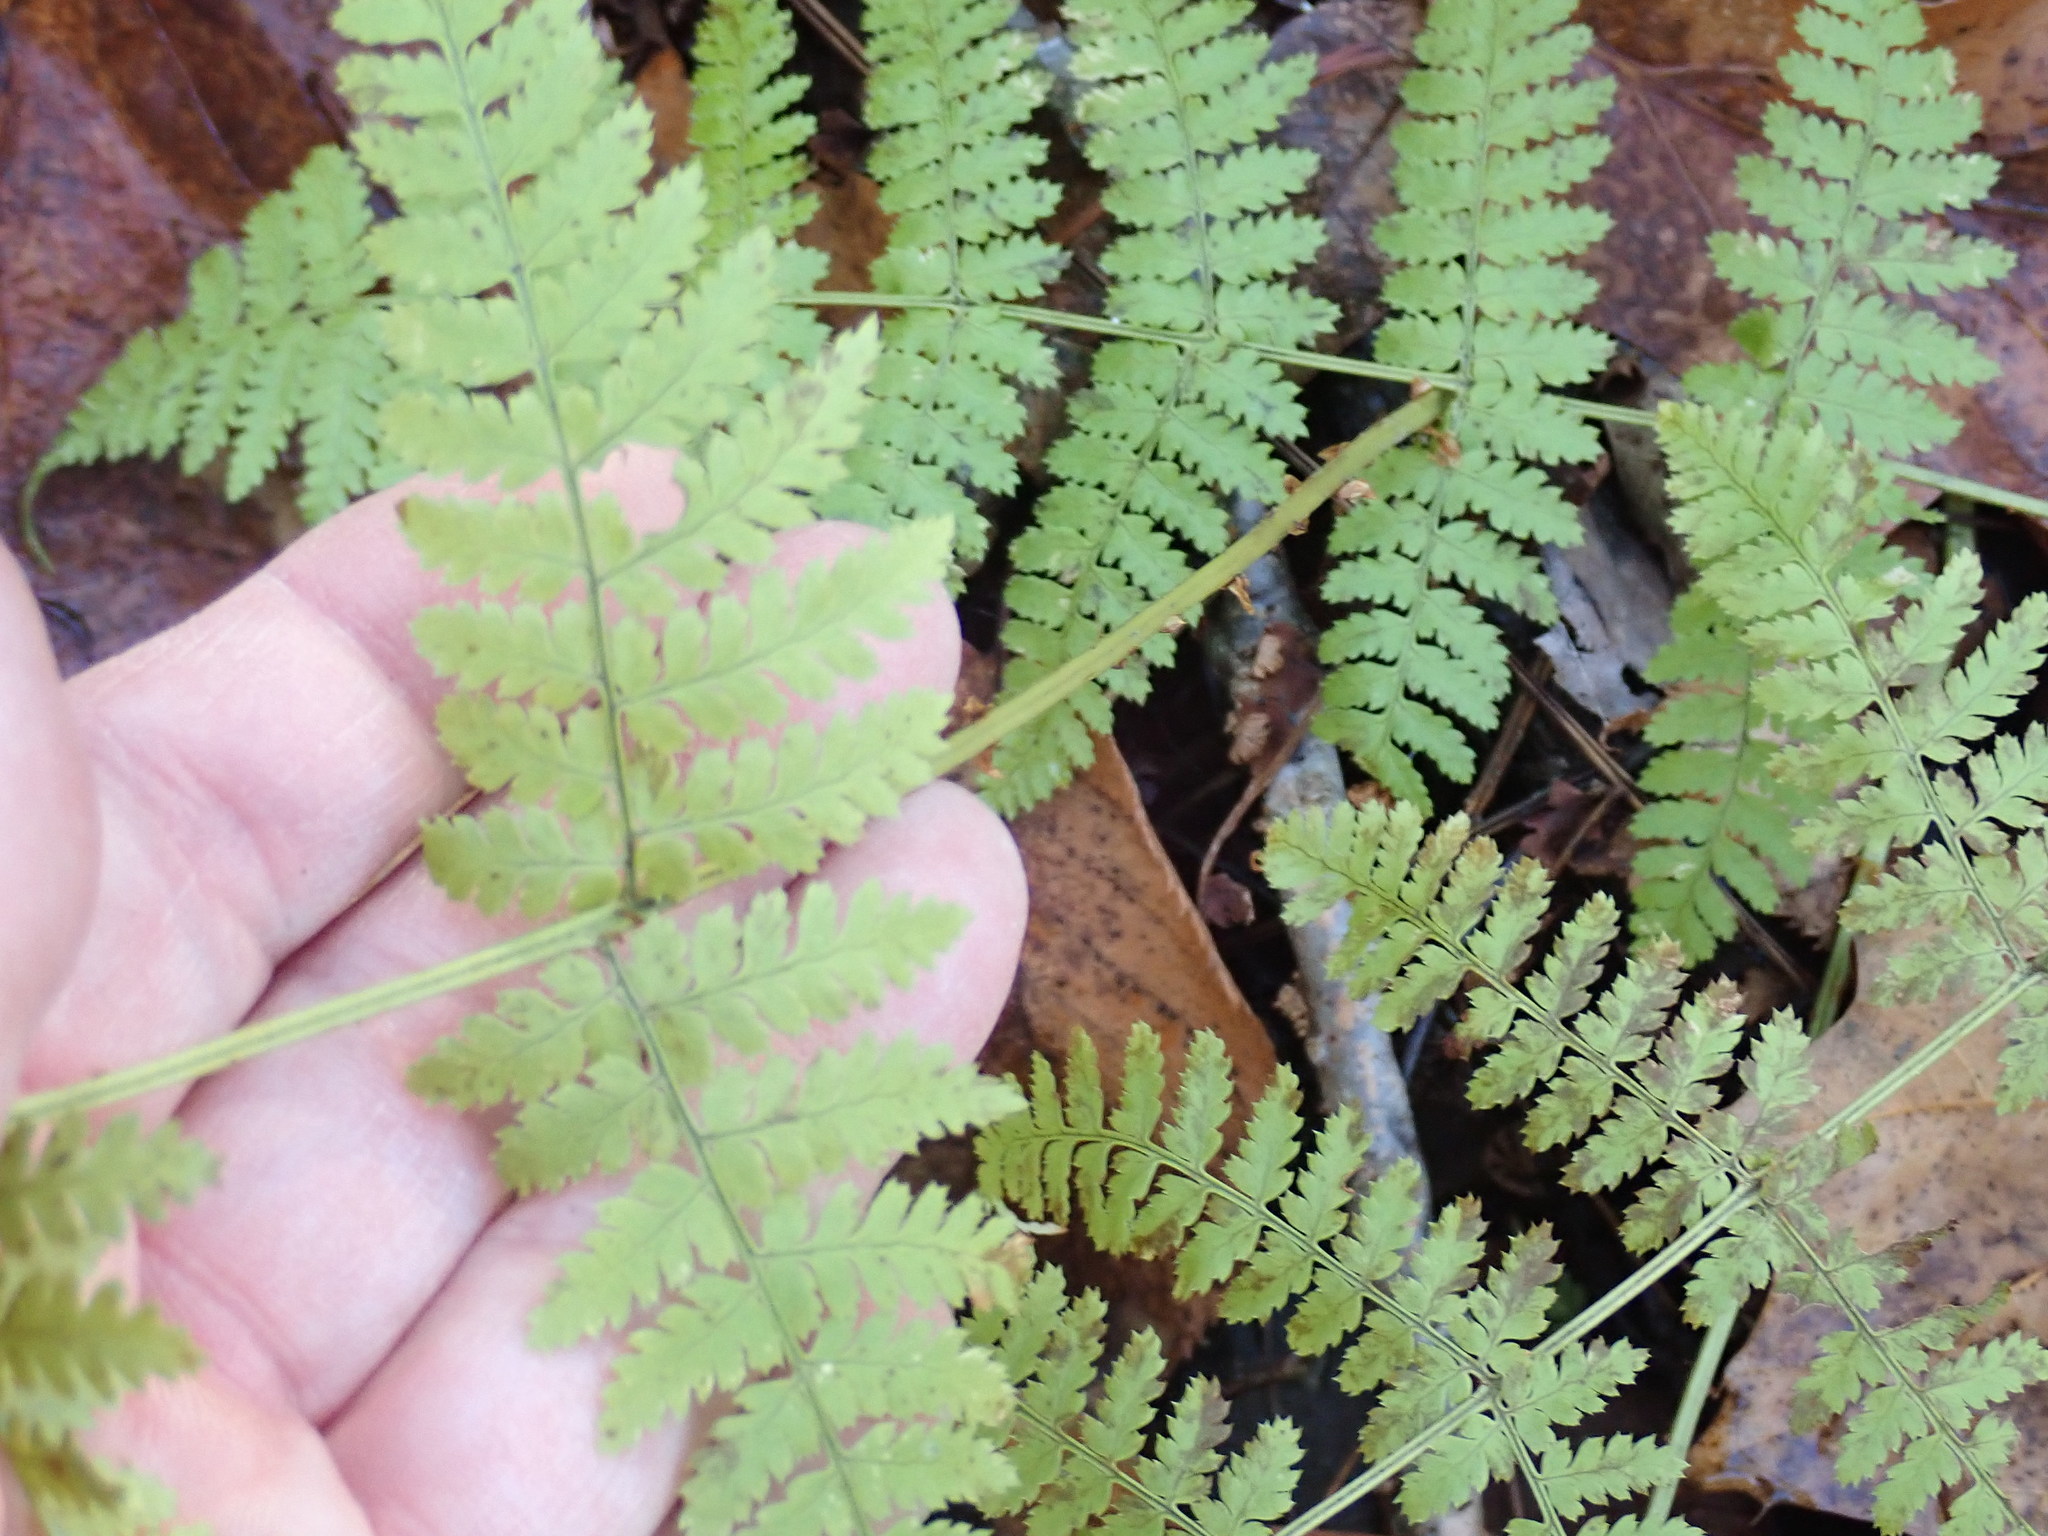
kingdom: Plantae
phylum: Tracheophyta
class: Polypodiopsida
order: Polypodiales
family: Dryopteridaceae
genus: Dryopteris
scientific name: Dryopteris intermedia
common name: Evergreen wood fern
